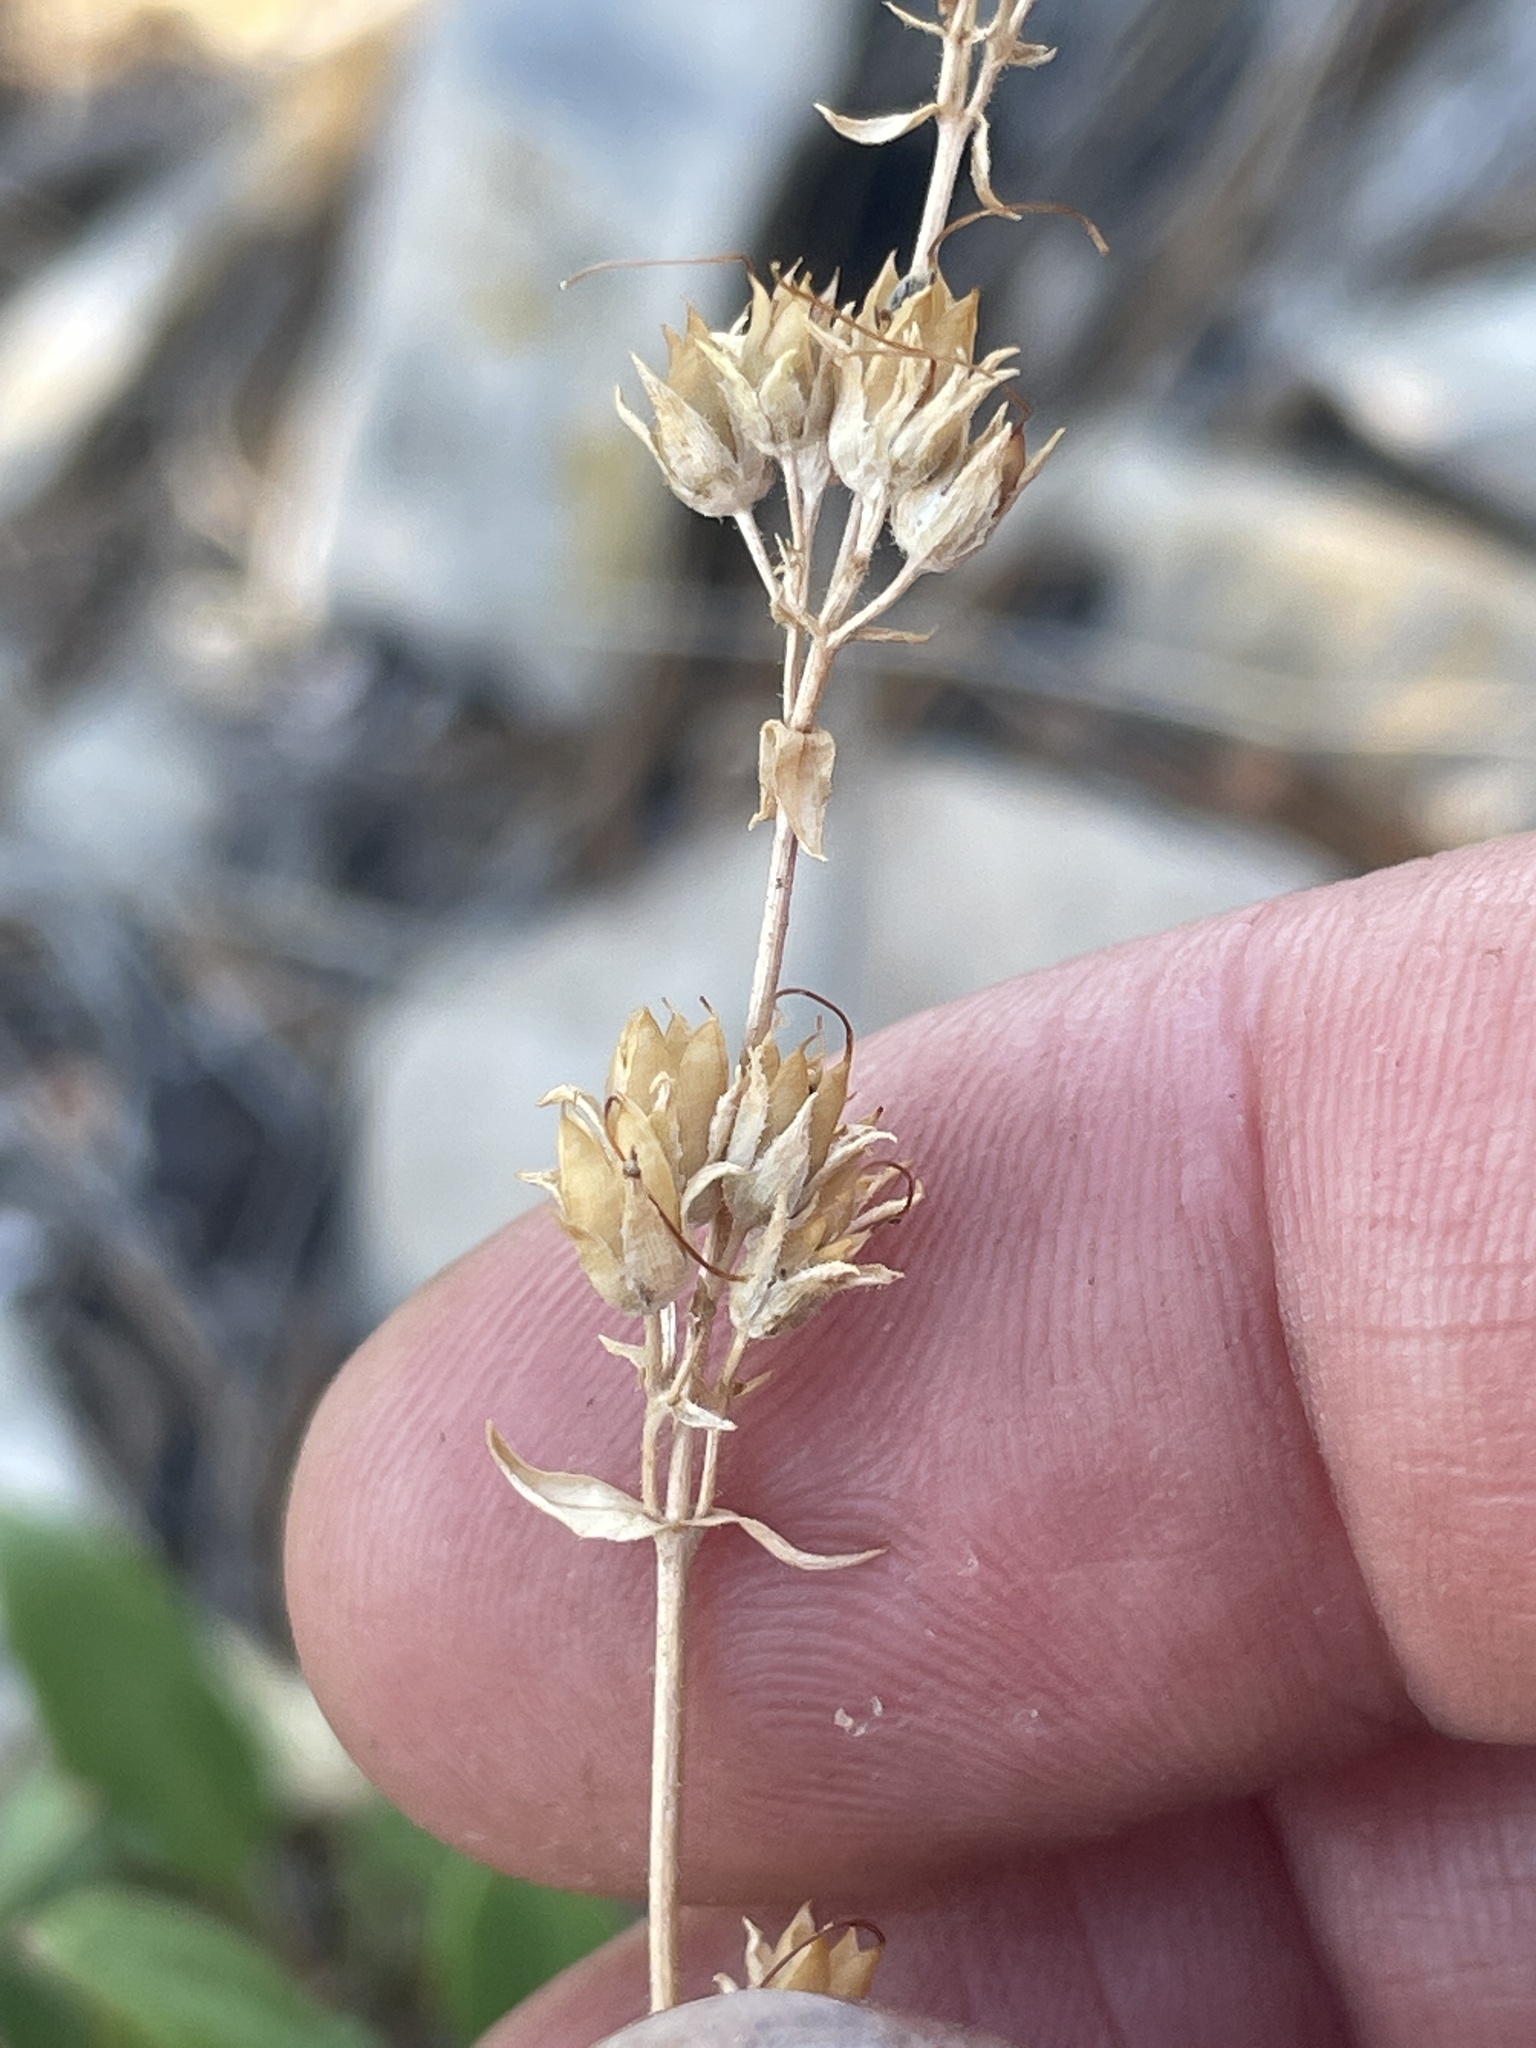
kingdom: Plantae
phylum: Tracheophyta
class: Magnoliopsida
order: Lamiales
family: Plantaginaceae
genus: Penstemon
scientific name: Penstemon humilis
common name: Low penstemon
